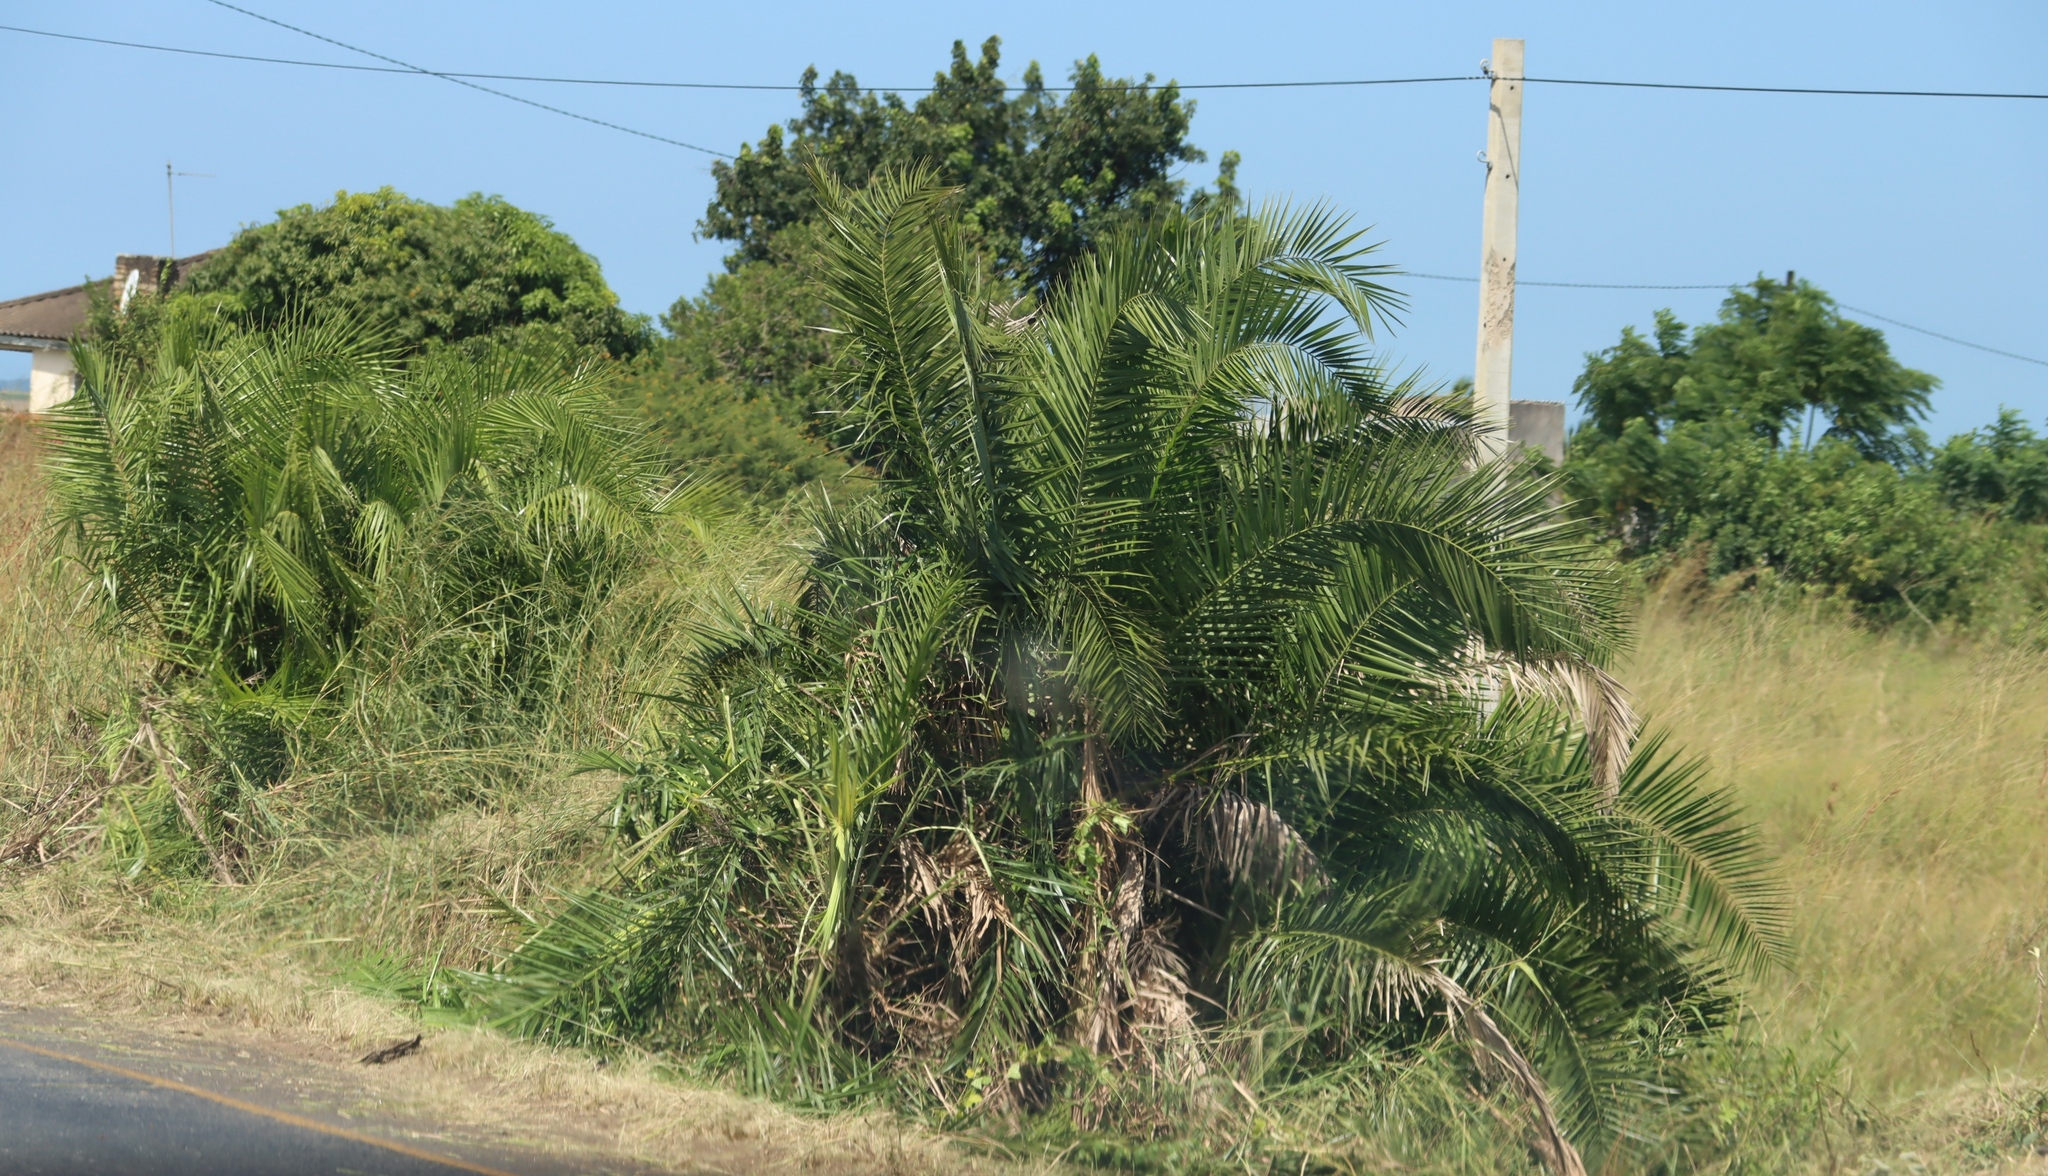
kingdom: Plantae
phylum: Tracheophyta
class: Liliopsida
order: Arecales
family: Arecaceae
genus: Phoenix
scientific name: Phoenix reclinata
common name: Senegal date palm
